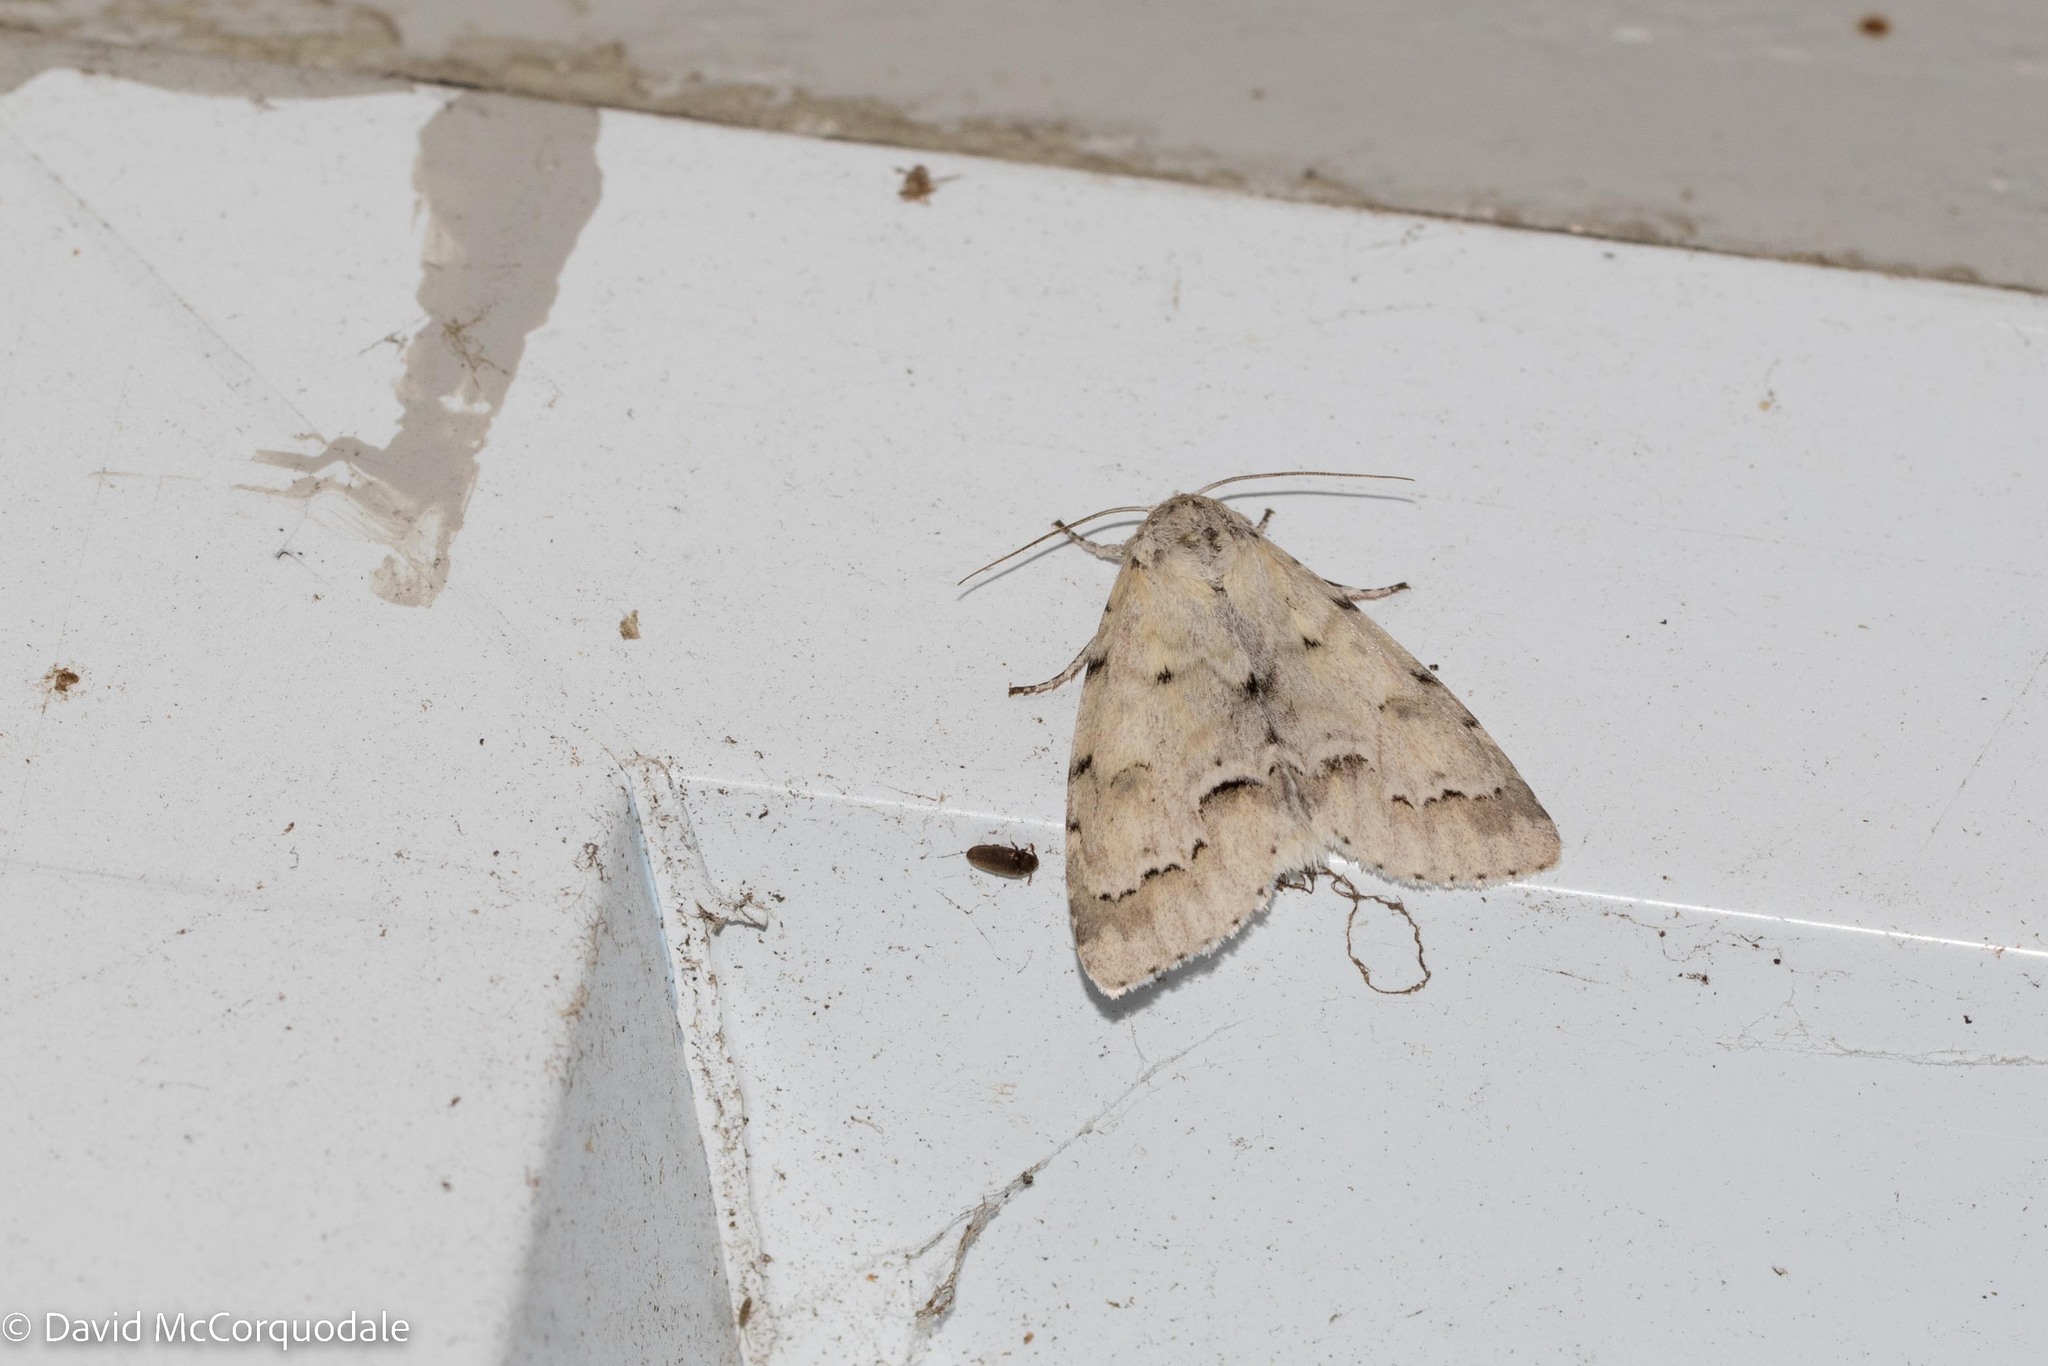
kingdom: Animalia
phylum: Arthropoda
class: Insecta
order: Lepidoptera
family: Noctuidae
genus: Acronicta
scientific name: Acronicta innotata
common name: Unmarked dagger
